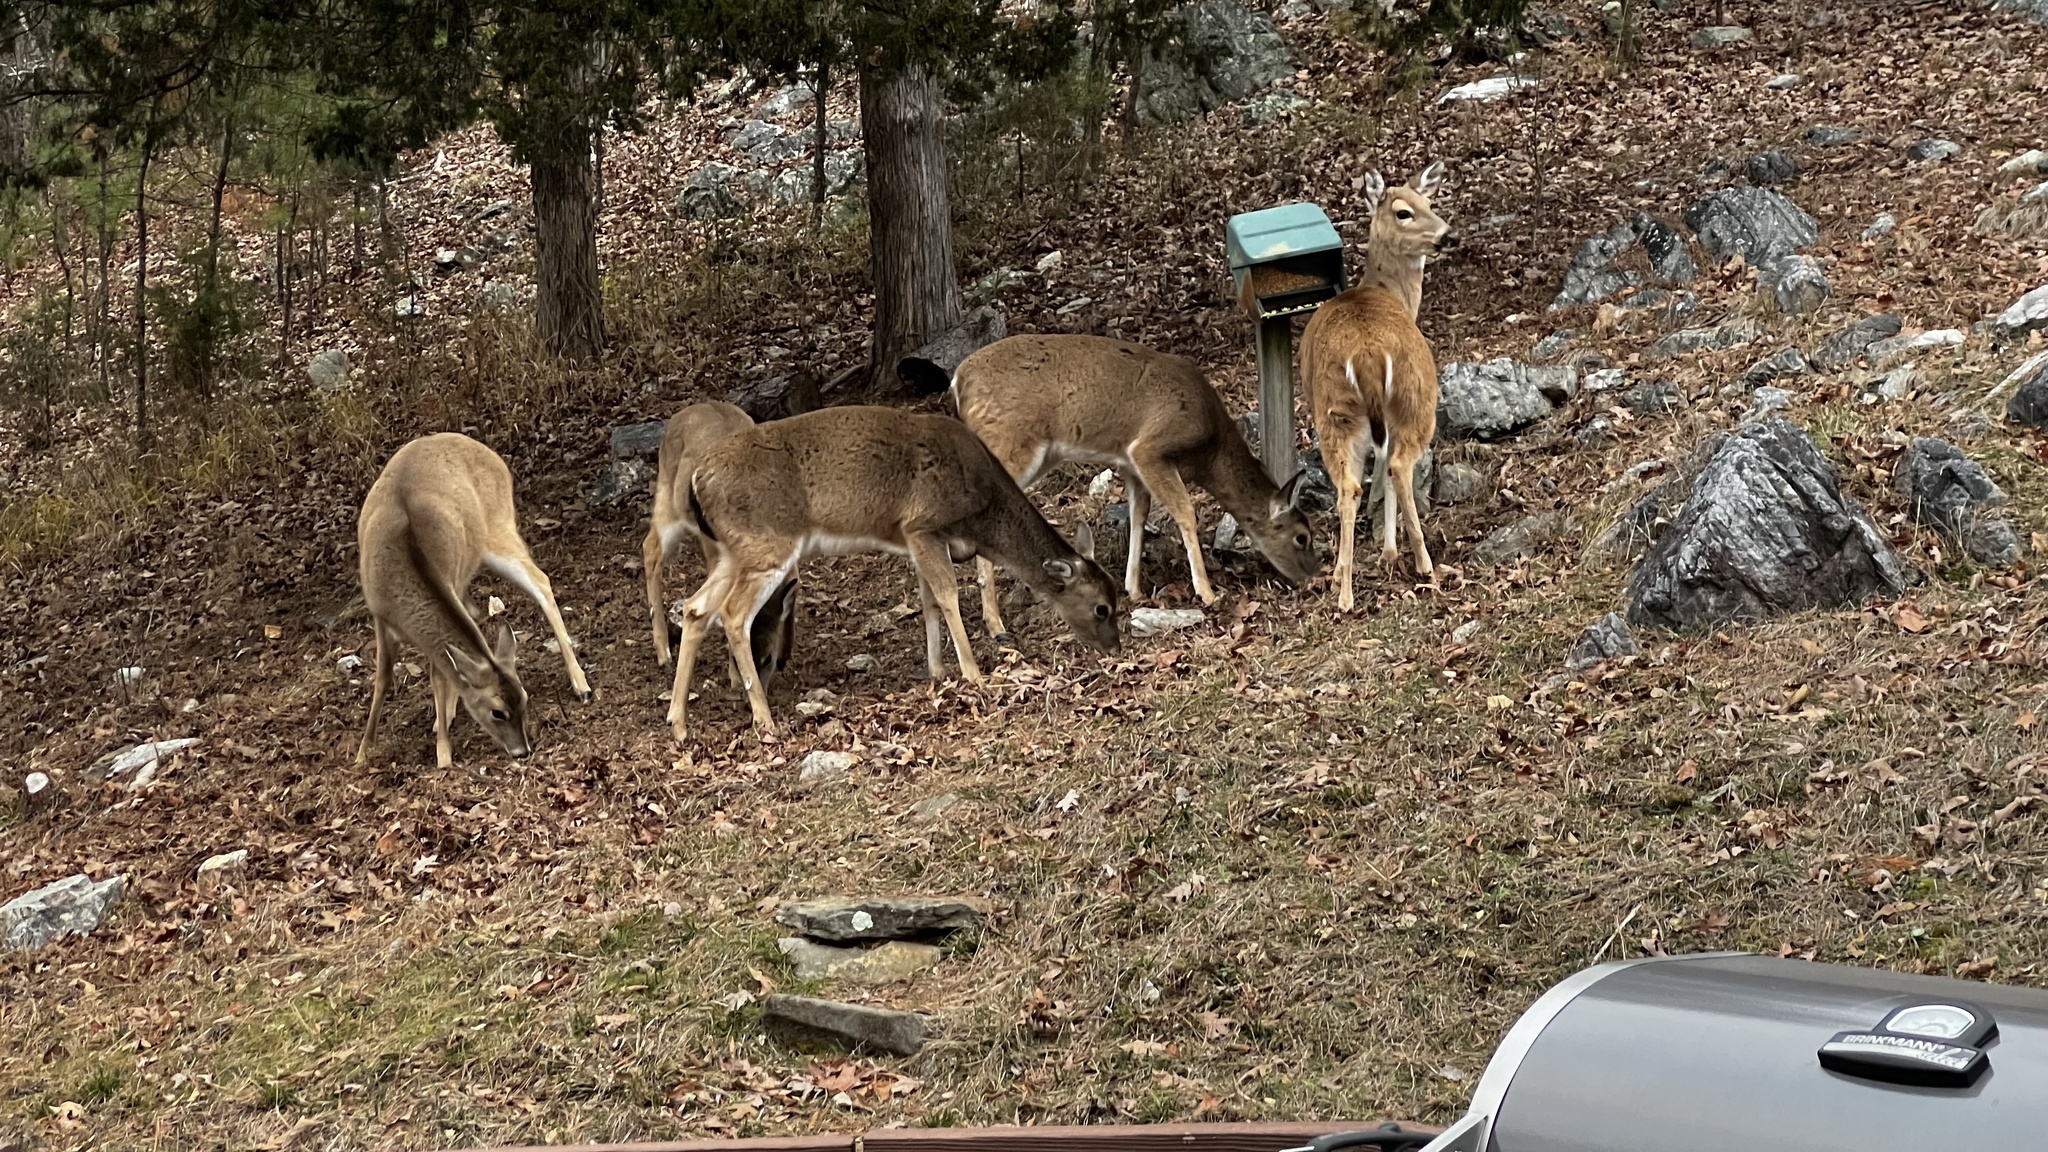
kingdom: Animalia
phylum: Chordata
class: Mammalia
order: Artiodactyla
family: Cervidae
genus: Odocoileus
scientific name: Odocoileus virginianus
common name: White-tailed deer
